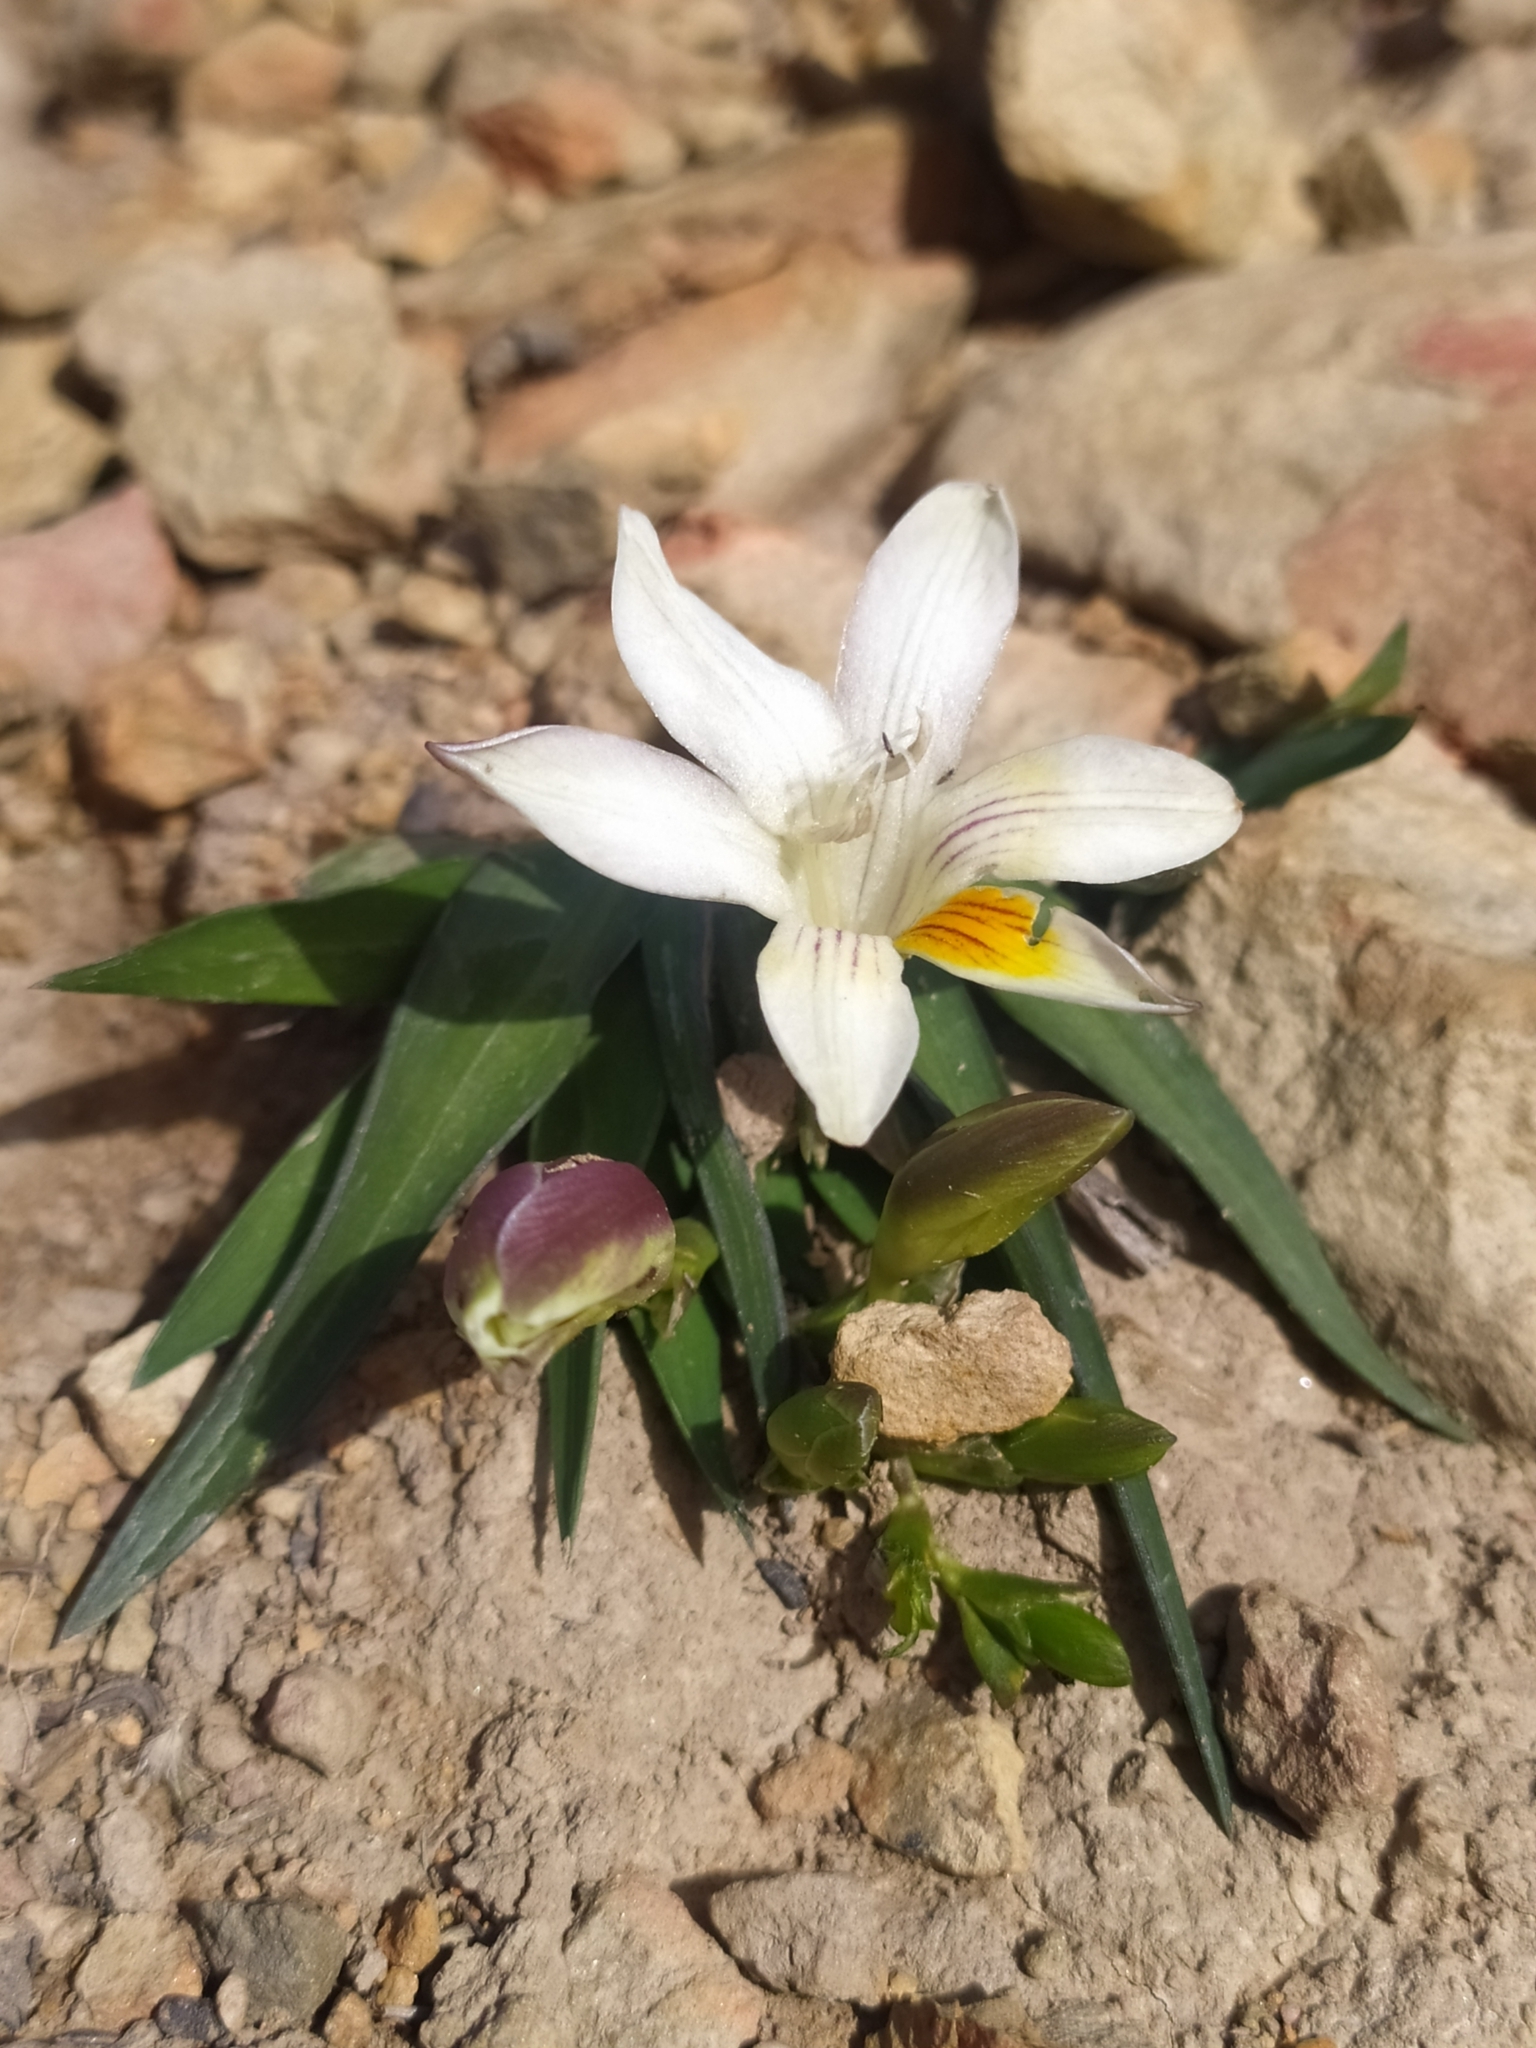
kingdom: Plantae
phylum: Tracheophyta
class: Liliopsida
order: Asparagales
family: Iridaceae
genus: Freesia
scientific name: Freesia caryophyllacea
